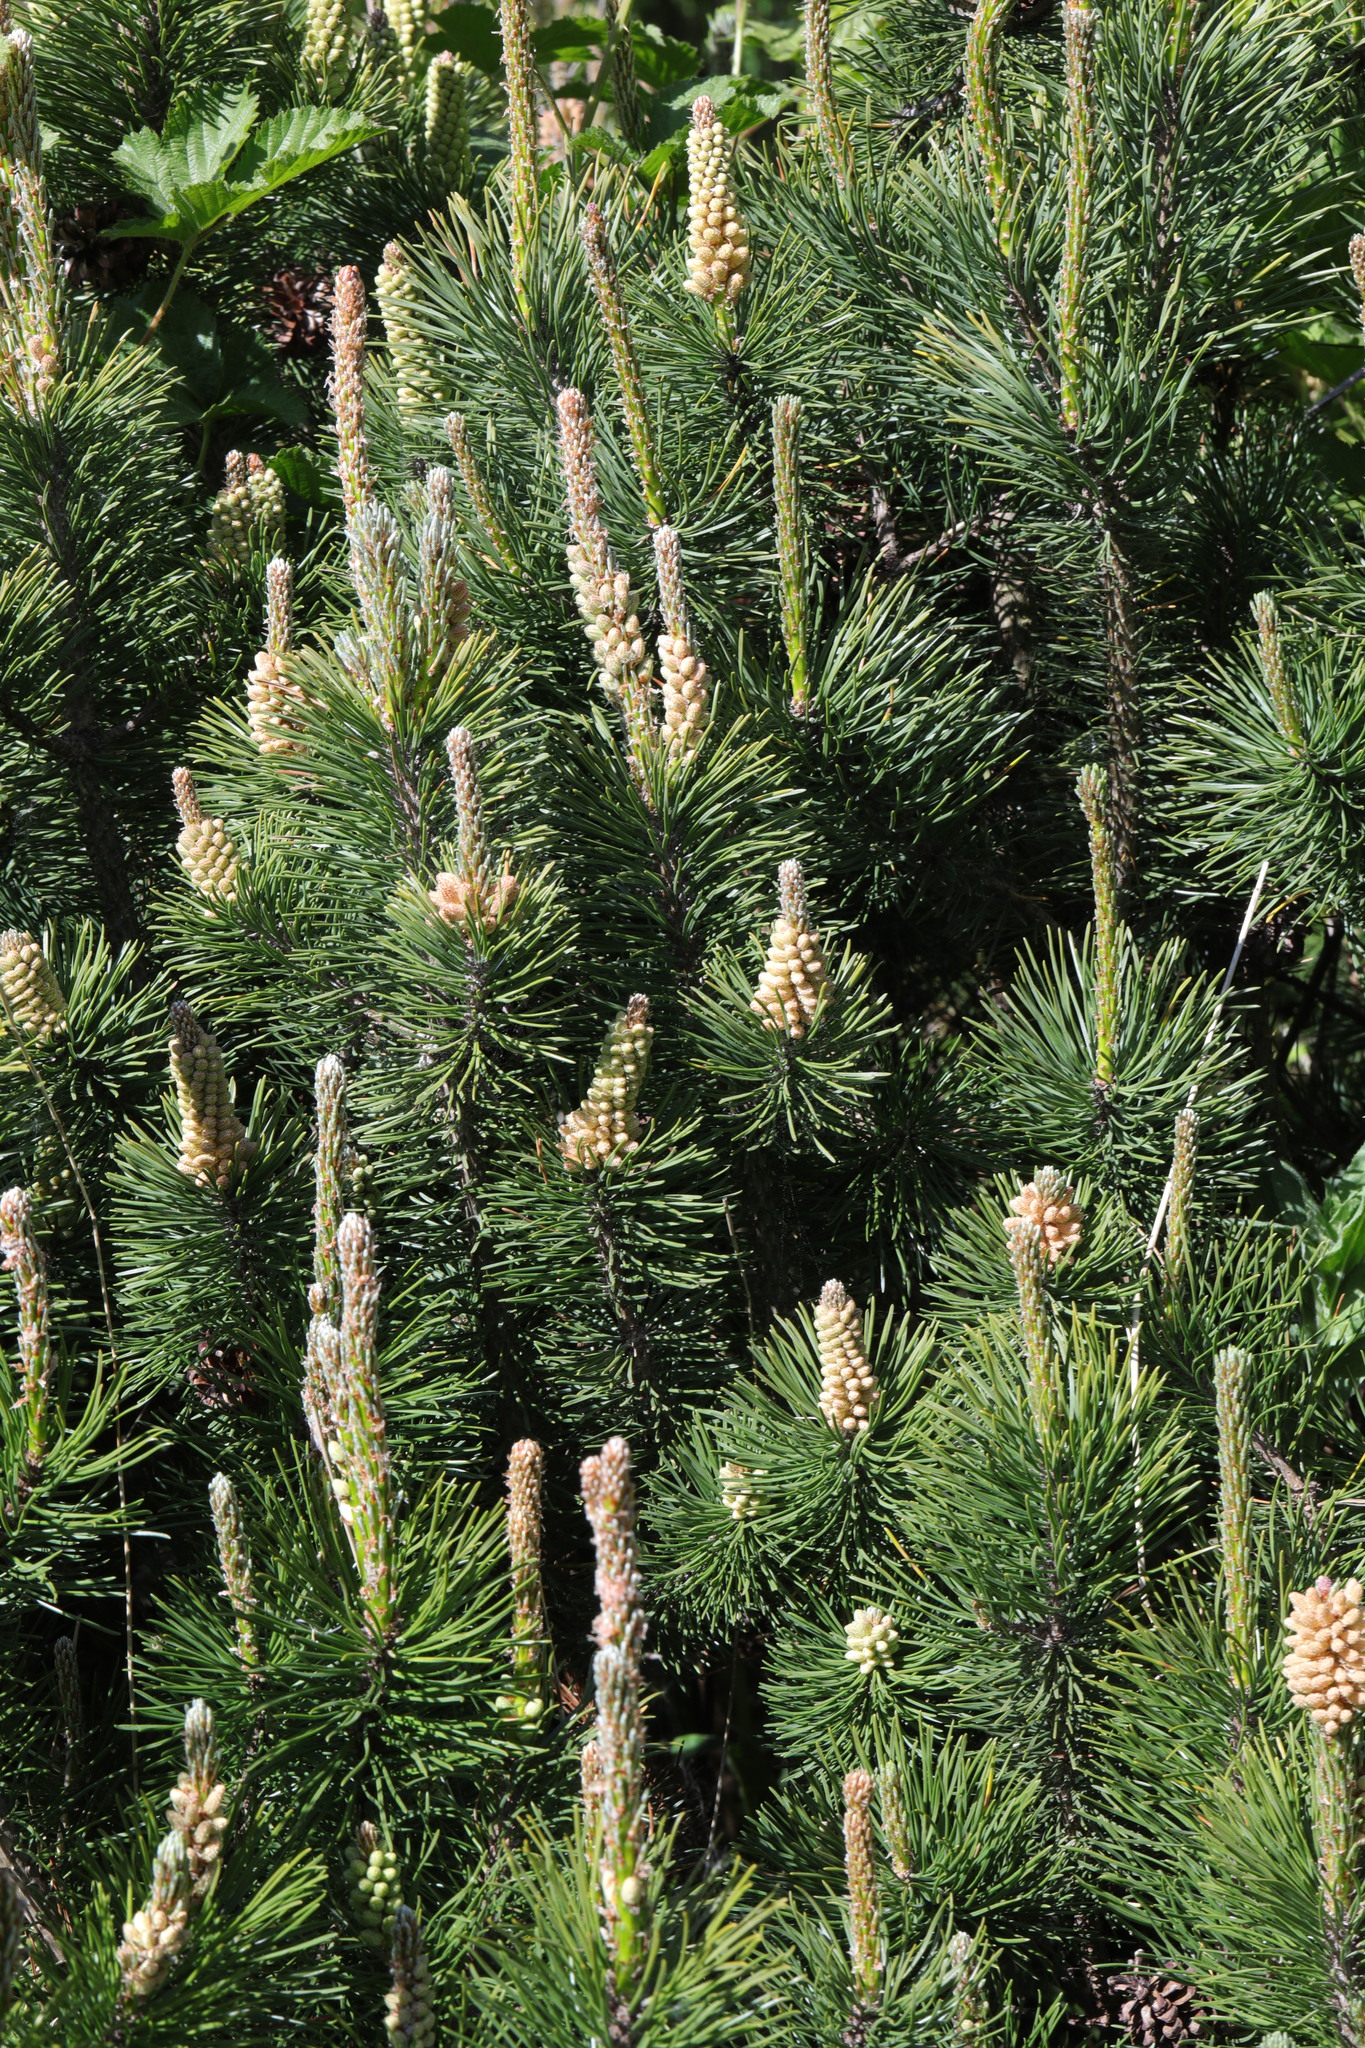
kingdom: Plantae
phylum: Tracheophyta
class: Pinopsida
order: Pinales
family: Pinaceae
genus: Pinus
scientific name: Pinus sylvestris
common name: Scots pine
